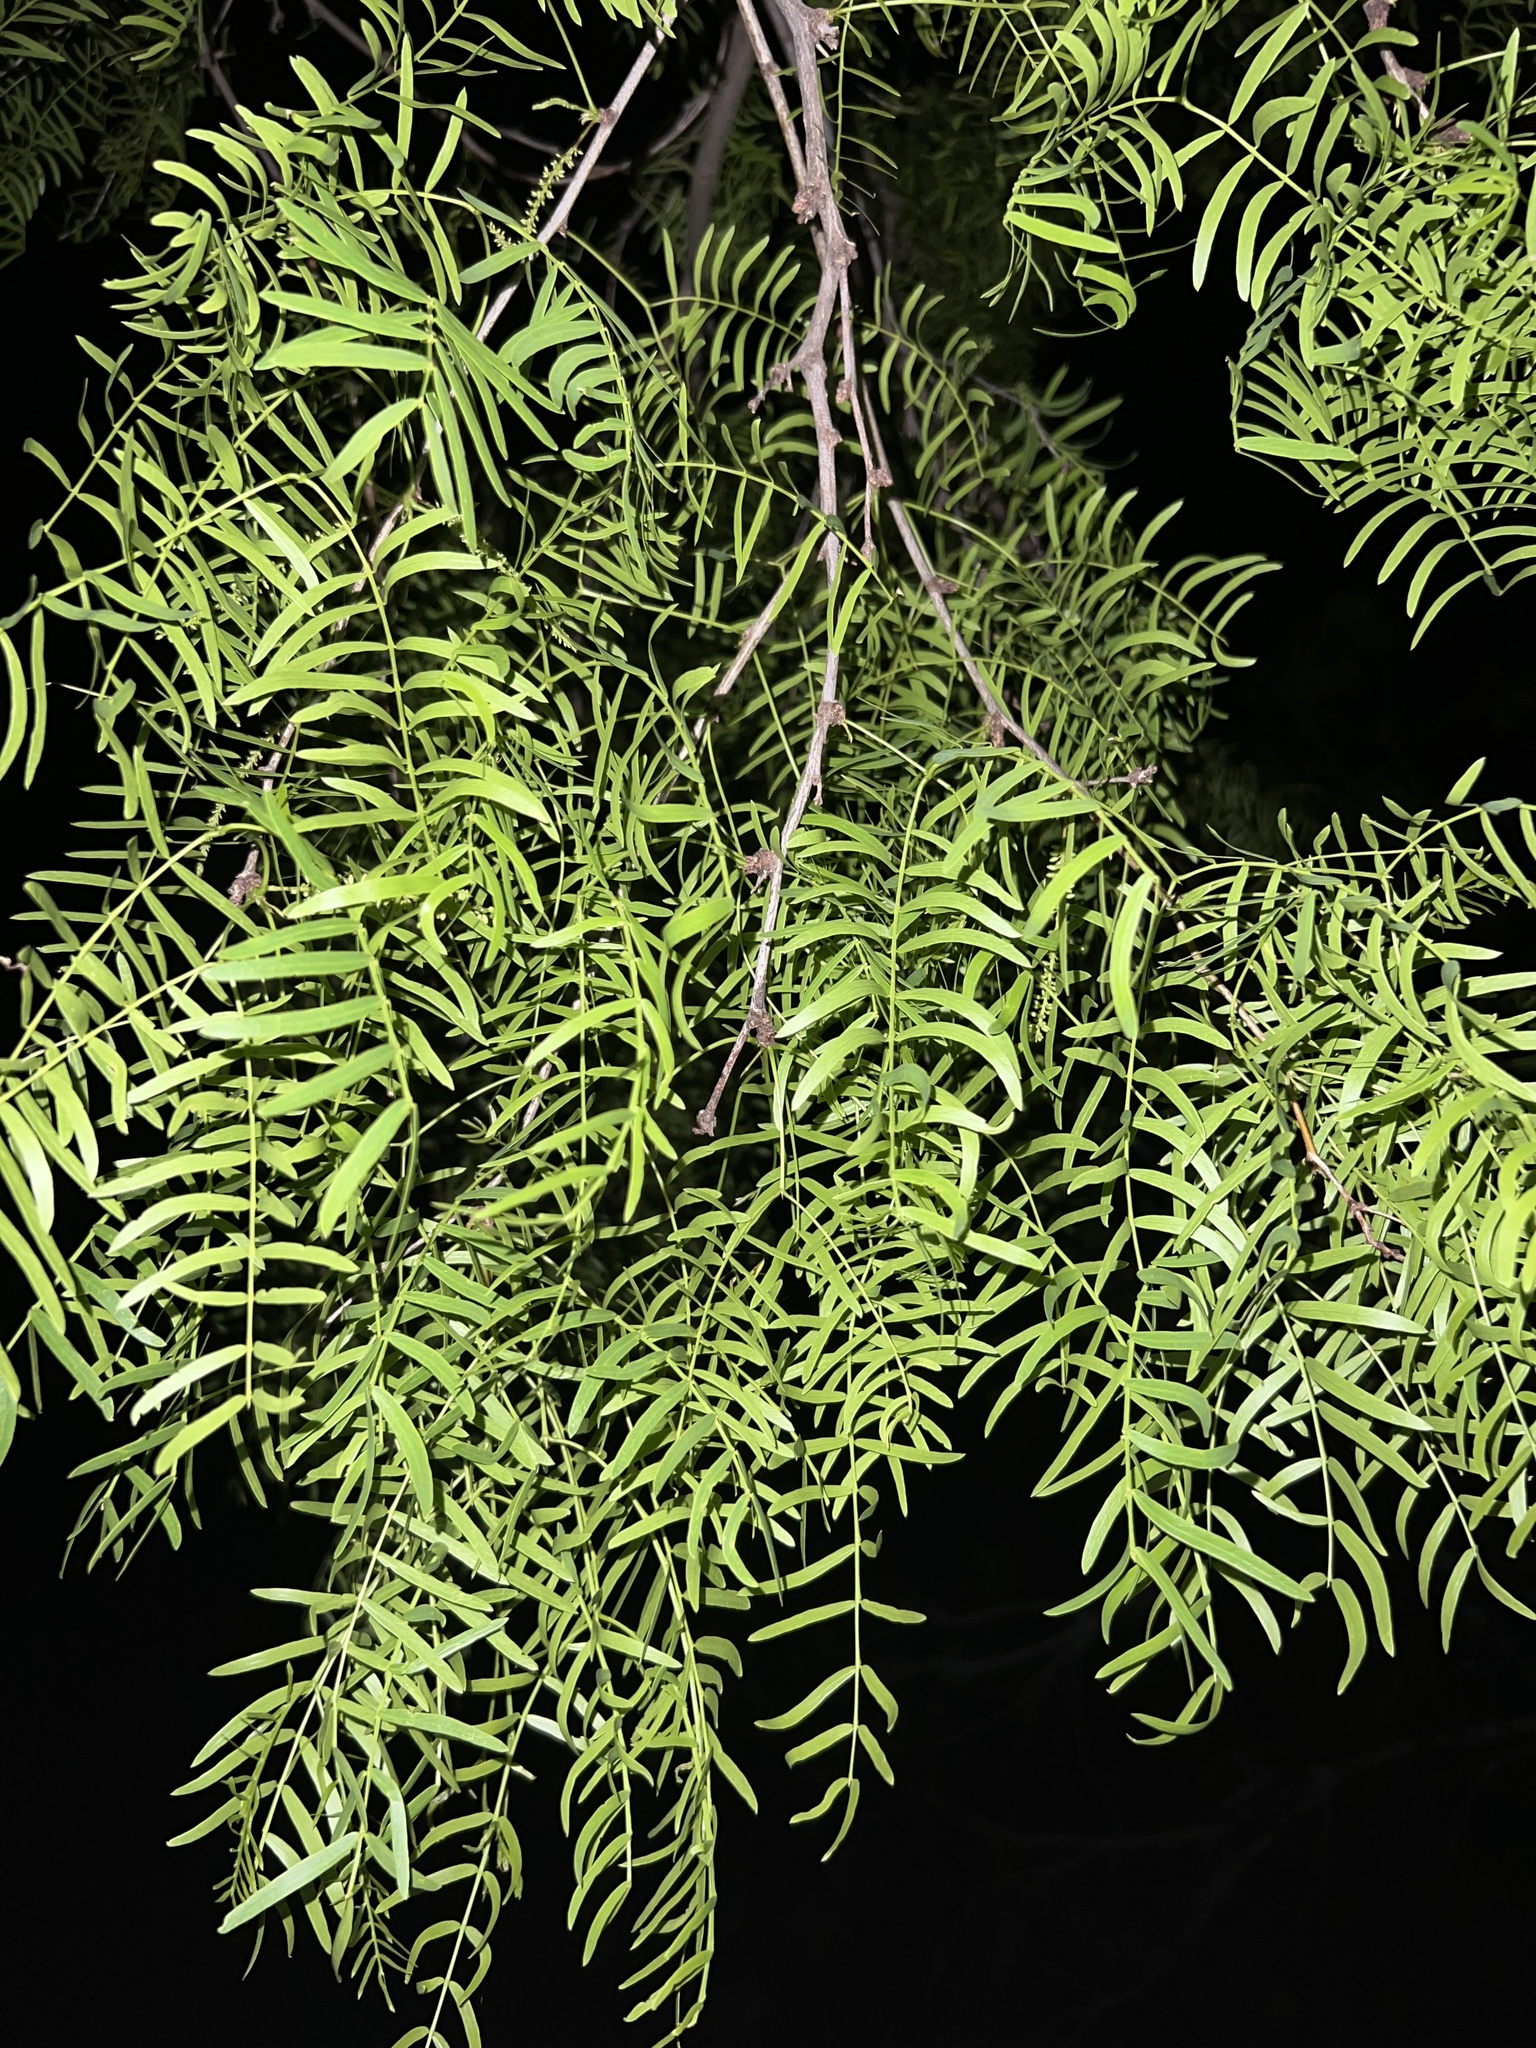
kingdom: Plantae
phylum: Tracheophyta
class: Magnoliopsida
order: Fabales
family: Fabaceae
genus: Prosopis
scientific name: Prosopis glandulosa
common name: Honey mesquite
